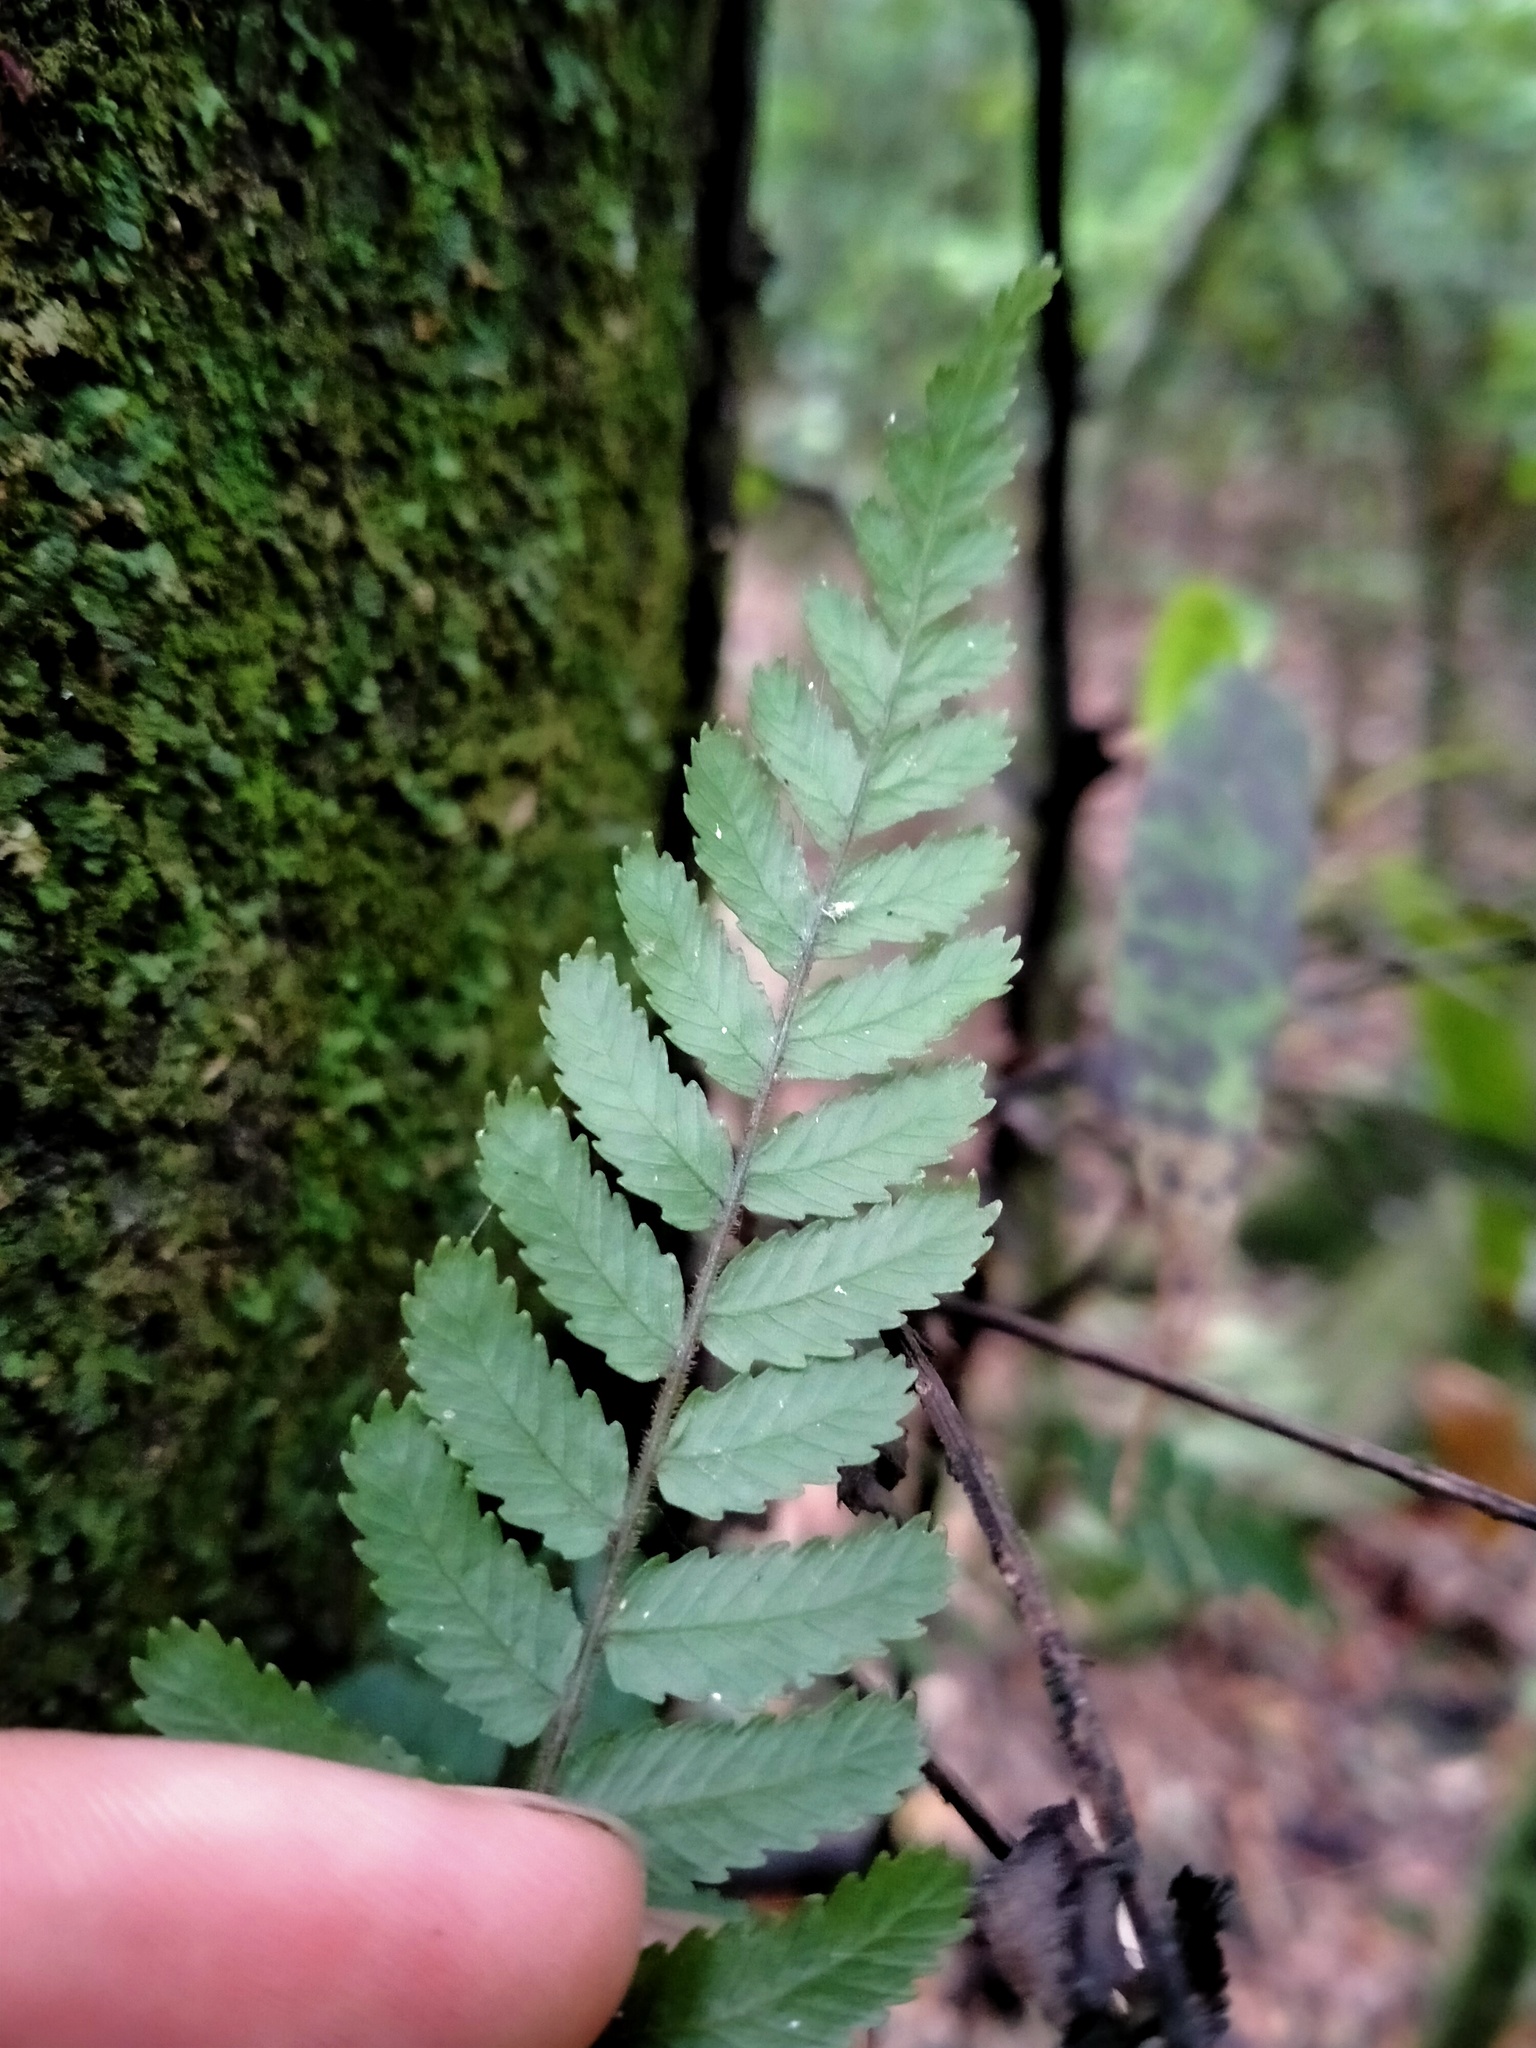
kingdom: Plantae
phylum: Tracheophyta
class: Polypodiopsida
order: Polypodiales
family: Blechnaceae
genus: Icarus
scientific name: Icarus filiformis
